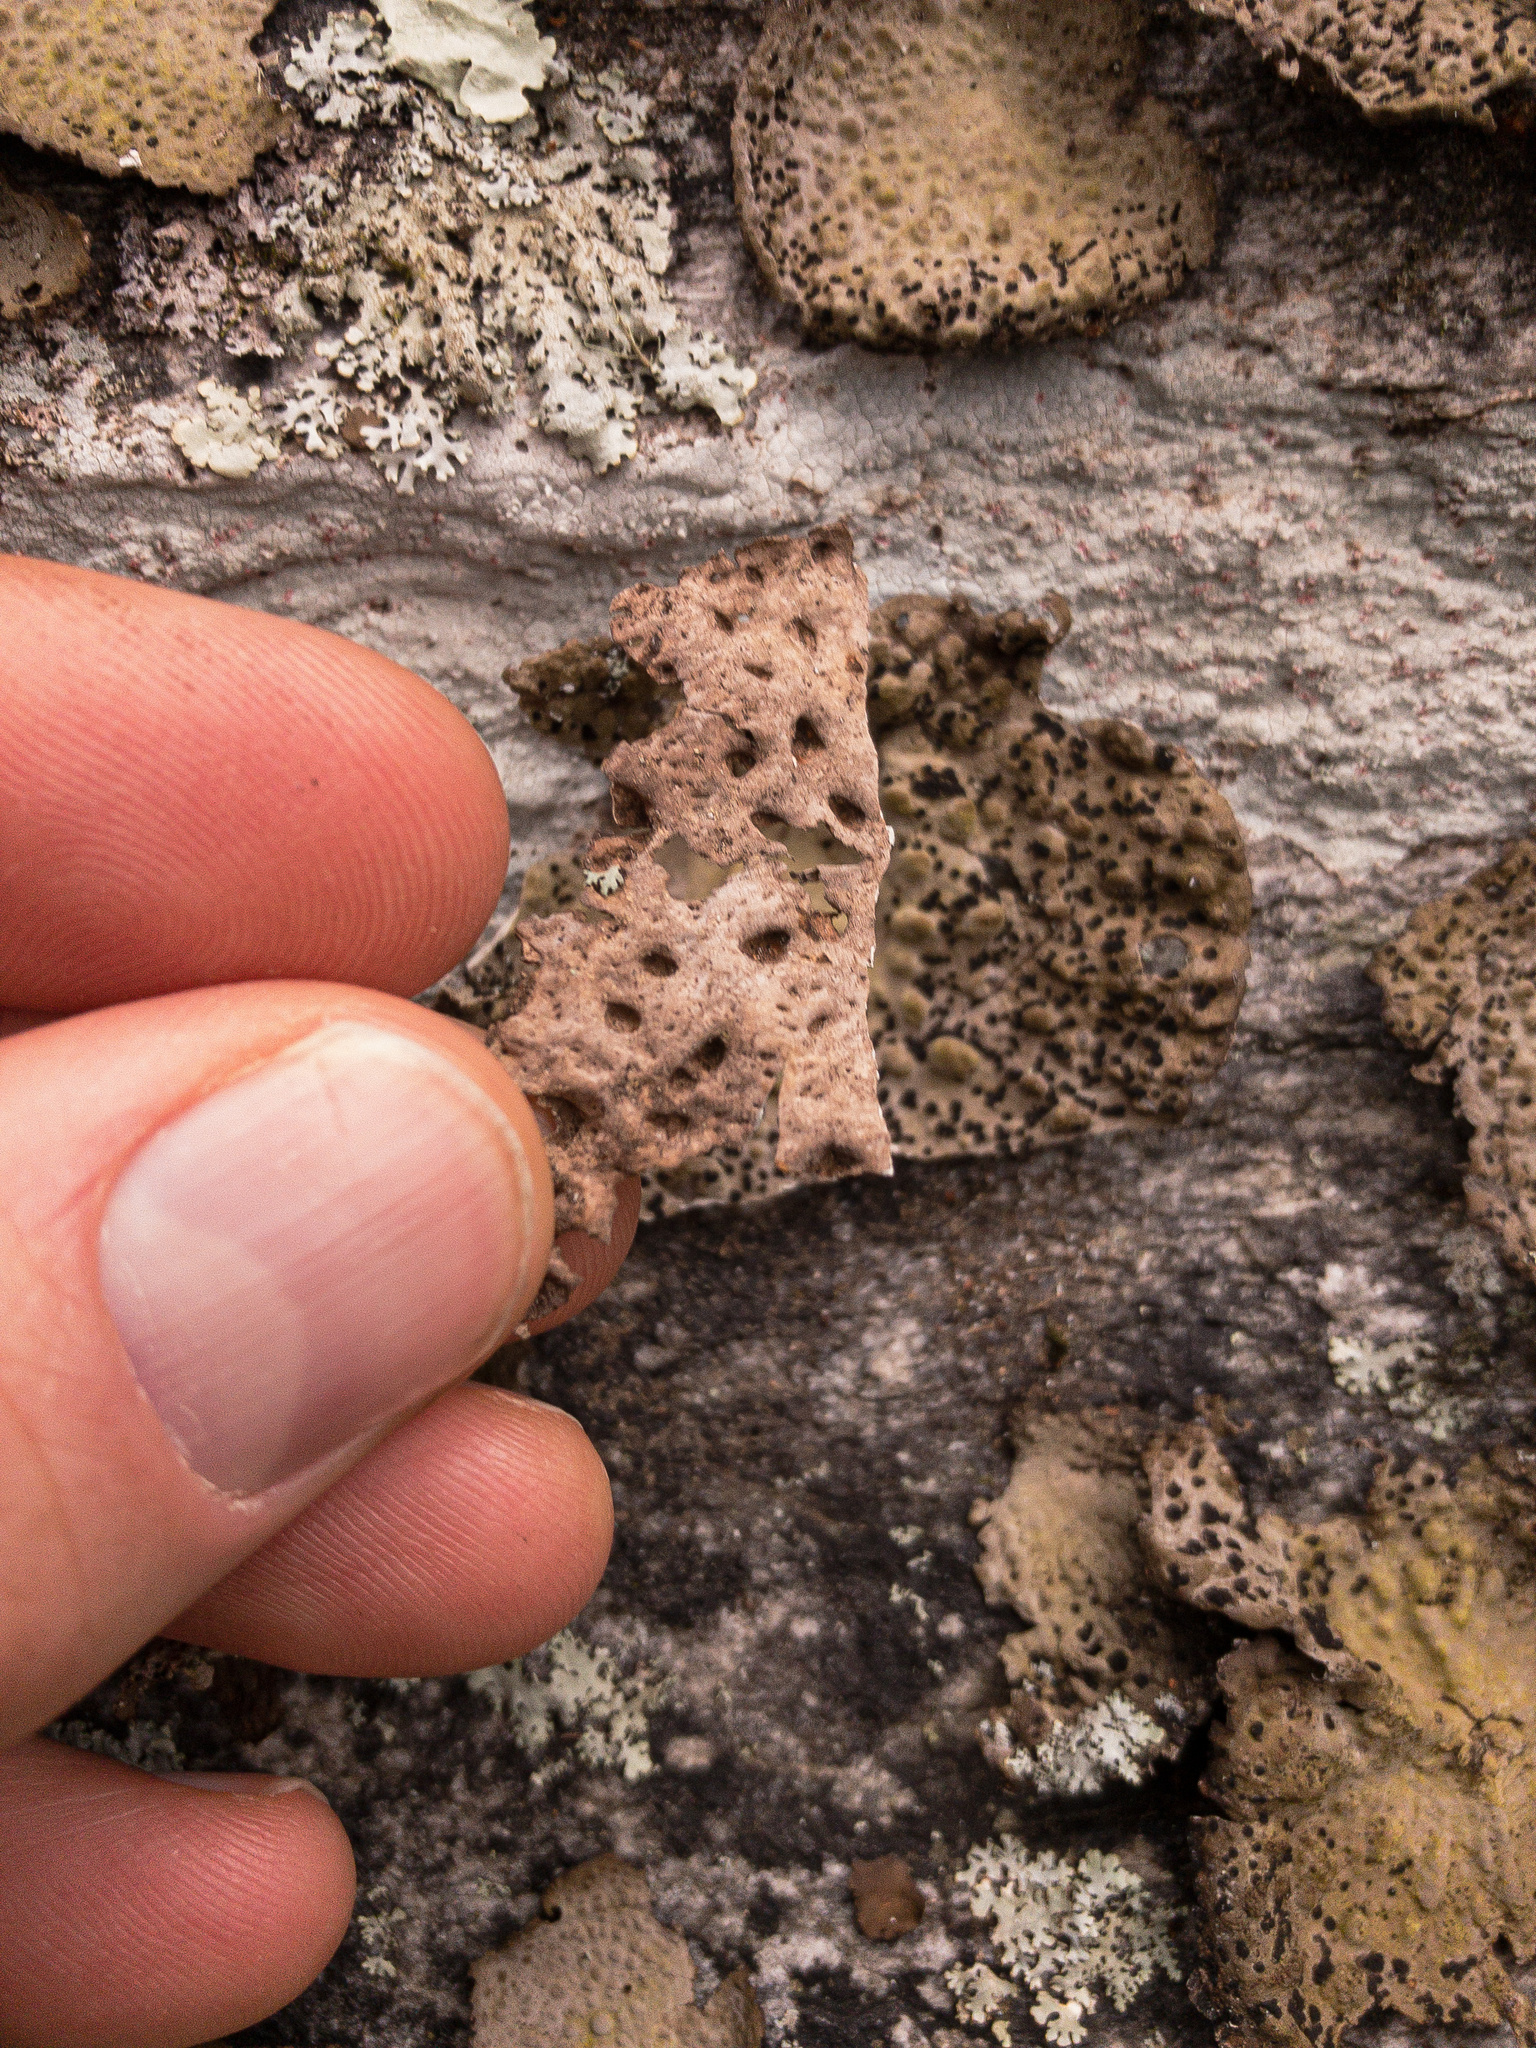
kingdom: Fungi
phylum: Ascomycota
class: Lecanoromycetes
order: Umbilicariales
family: Umbilicariaceae
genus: Lasallia
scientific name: Lasallia papulosa
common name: Common toadskin lichen
